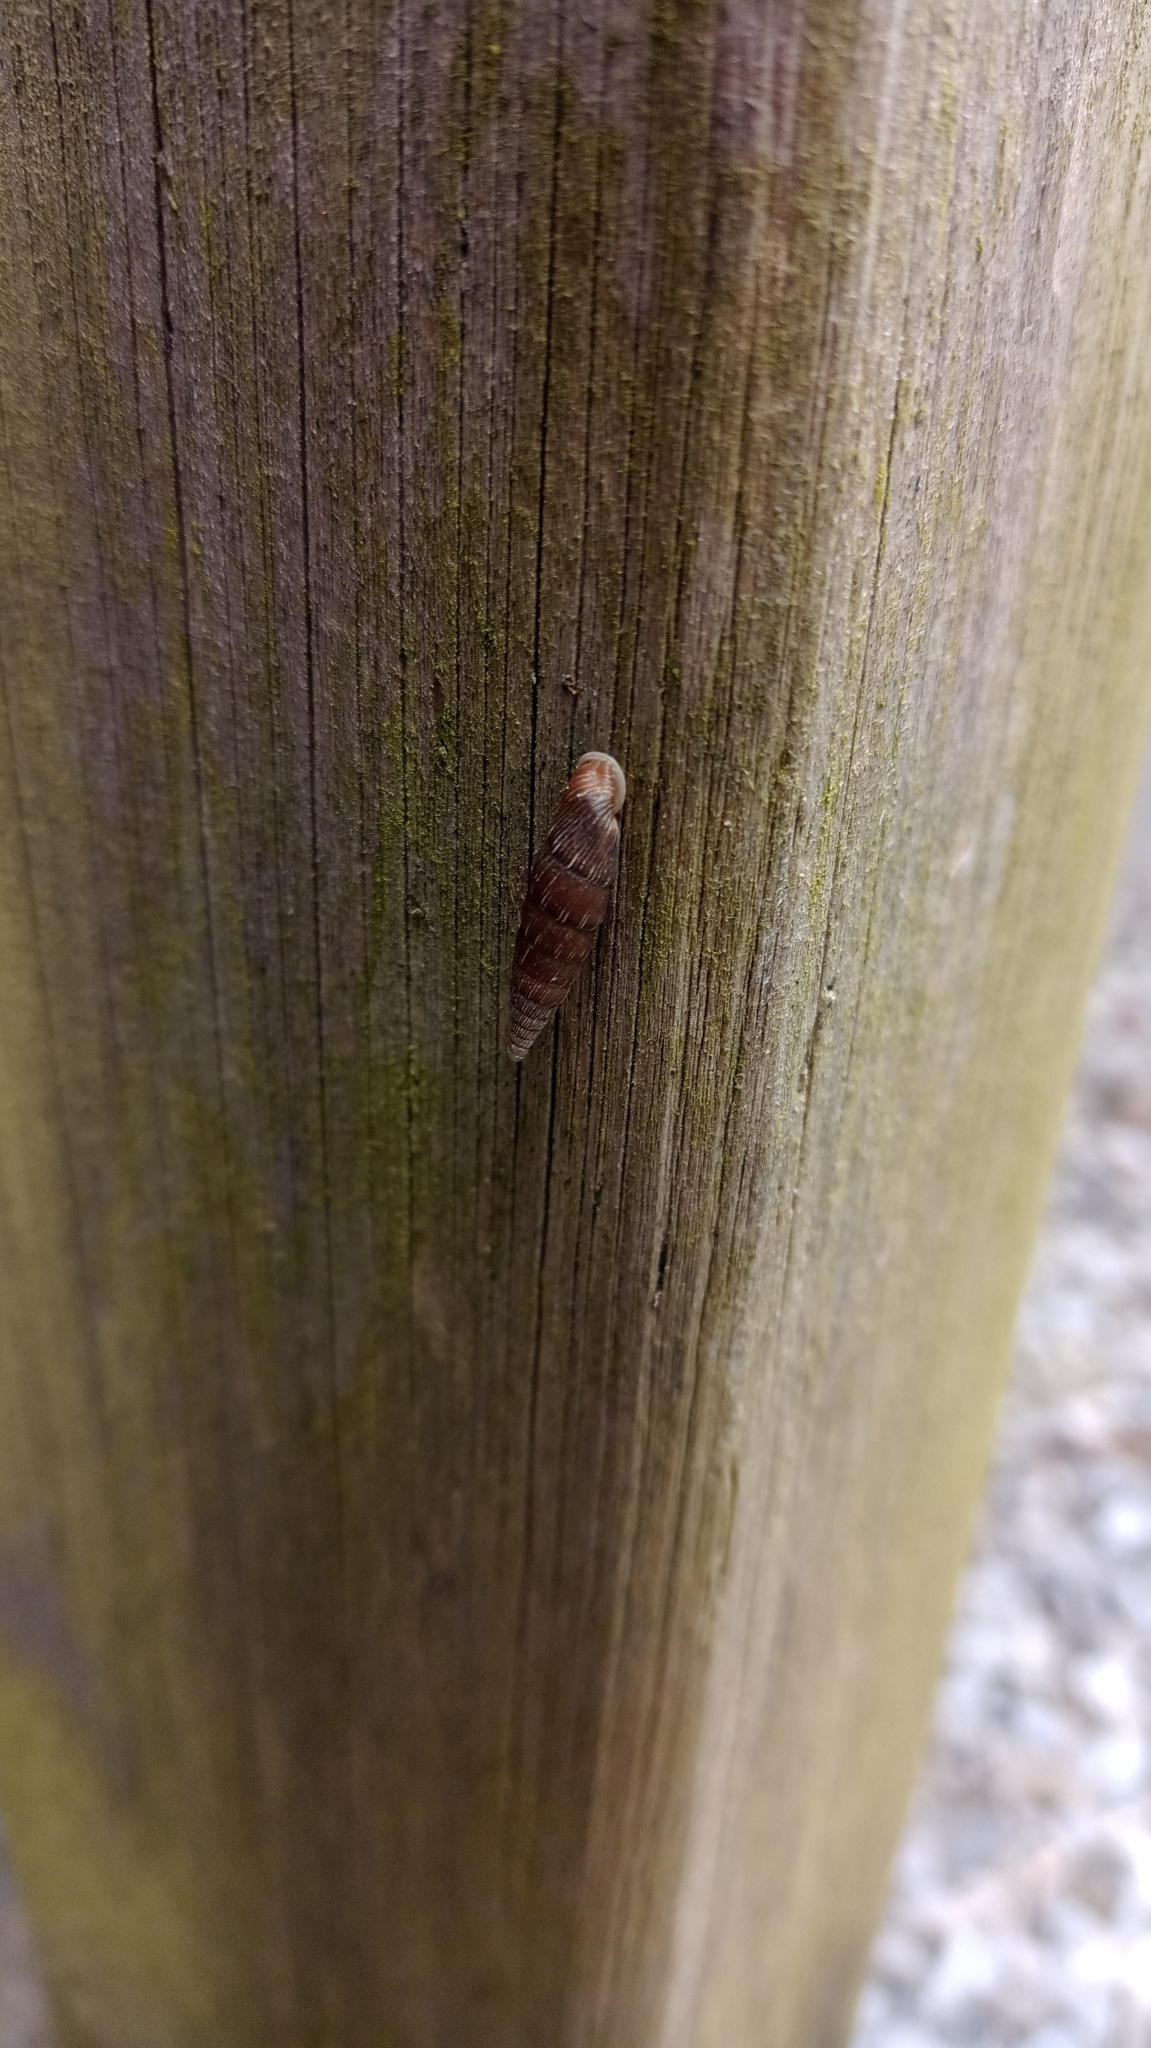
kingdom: Animalia
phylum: Mollusca
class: Gastropoda
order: Stylommatophora
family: Clausiliidae
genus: Alinda
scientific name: Alinda biplicata
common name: Thames door snail
